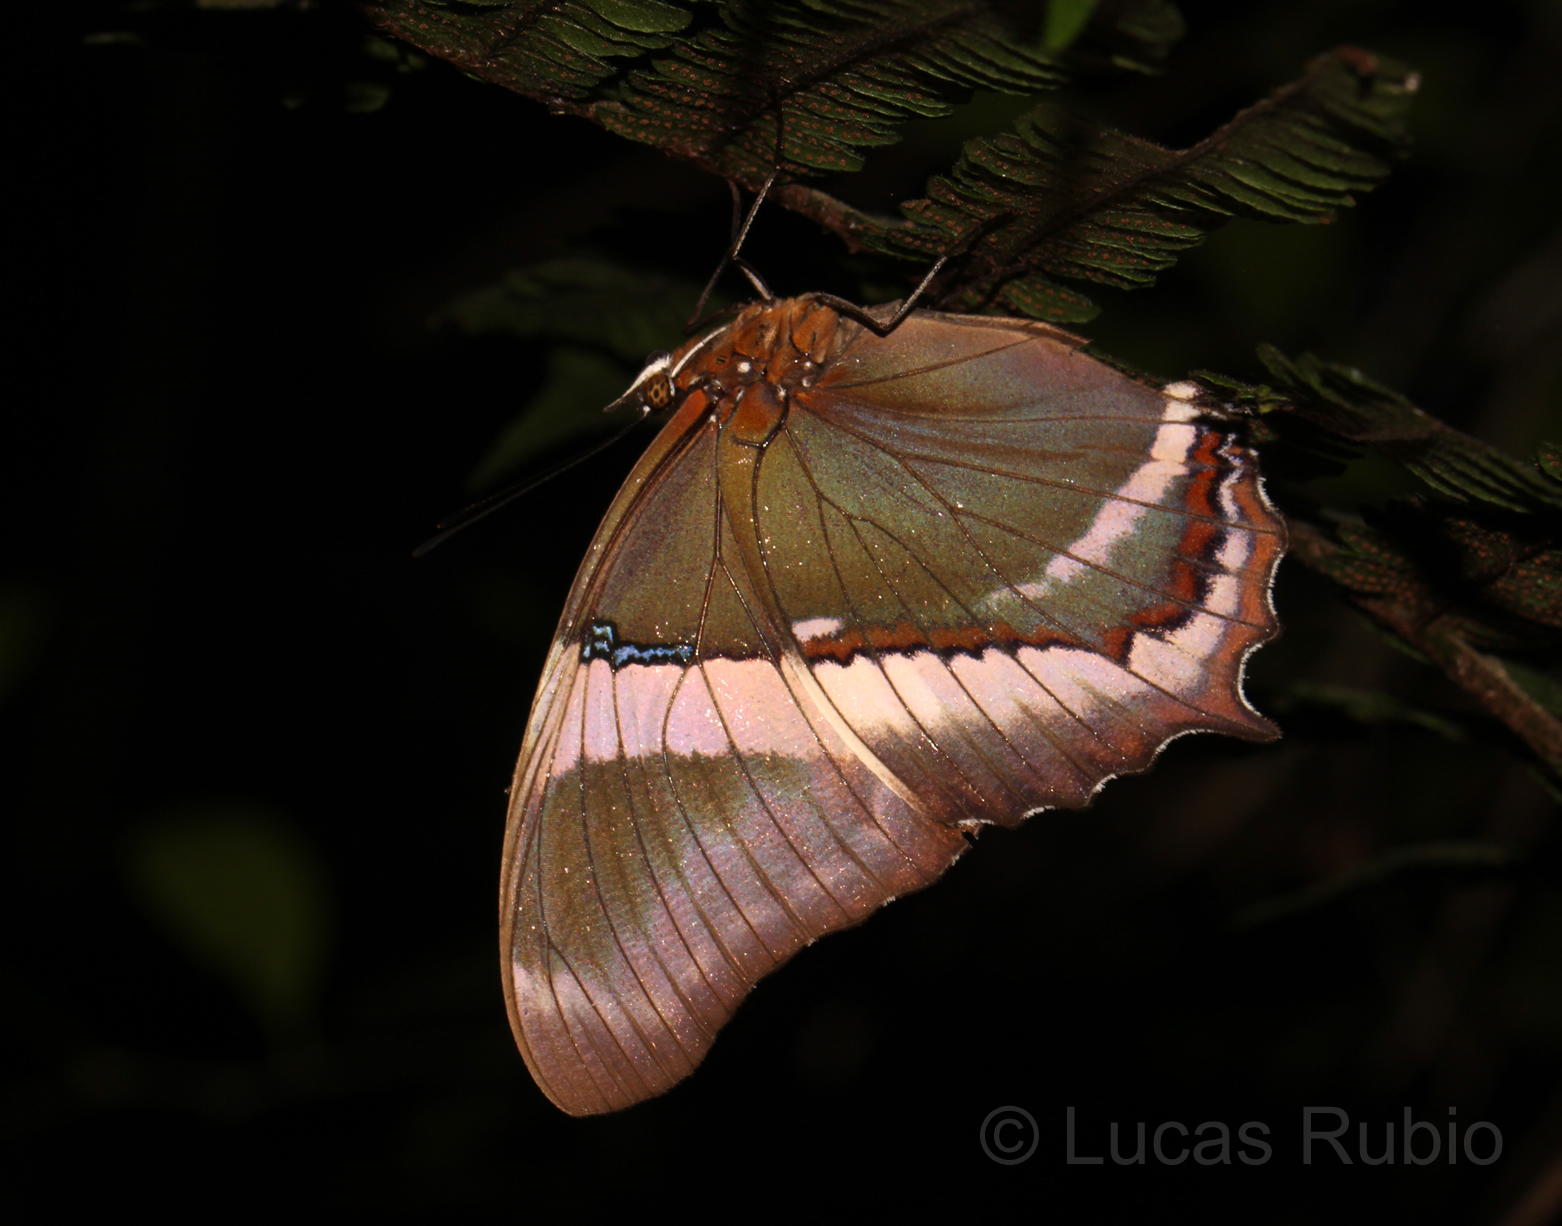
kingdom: Animalia
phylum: Arthropoda
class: Insecta
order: Lepidoptera
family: Nymphalidae
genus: Siproeta
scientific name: Siproeta epaphus
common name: Rusty-tipped page
